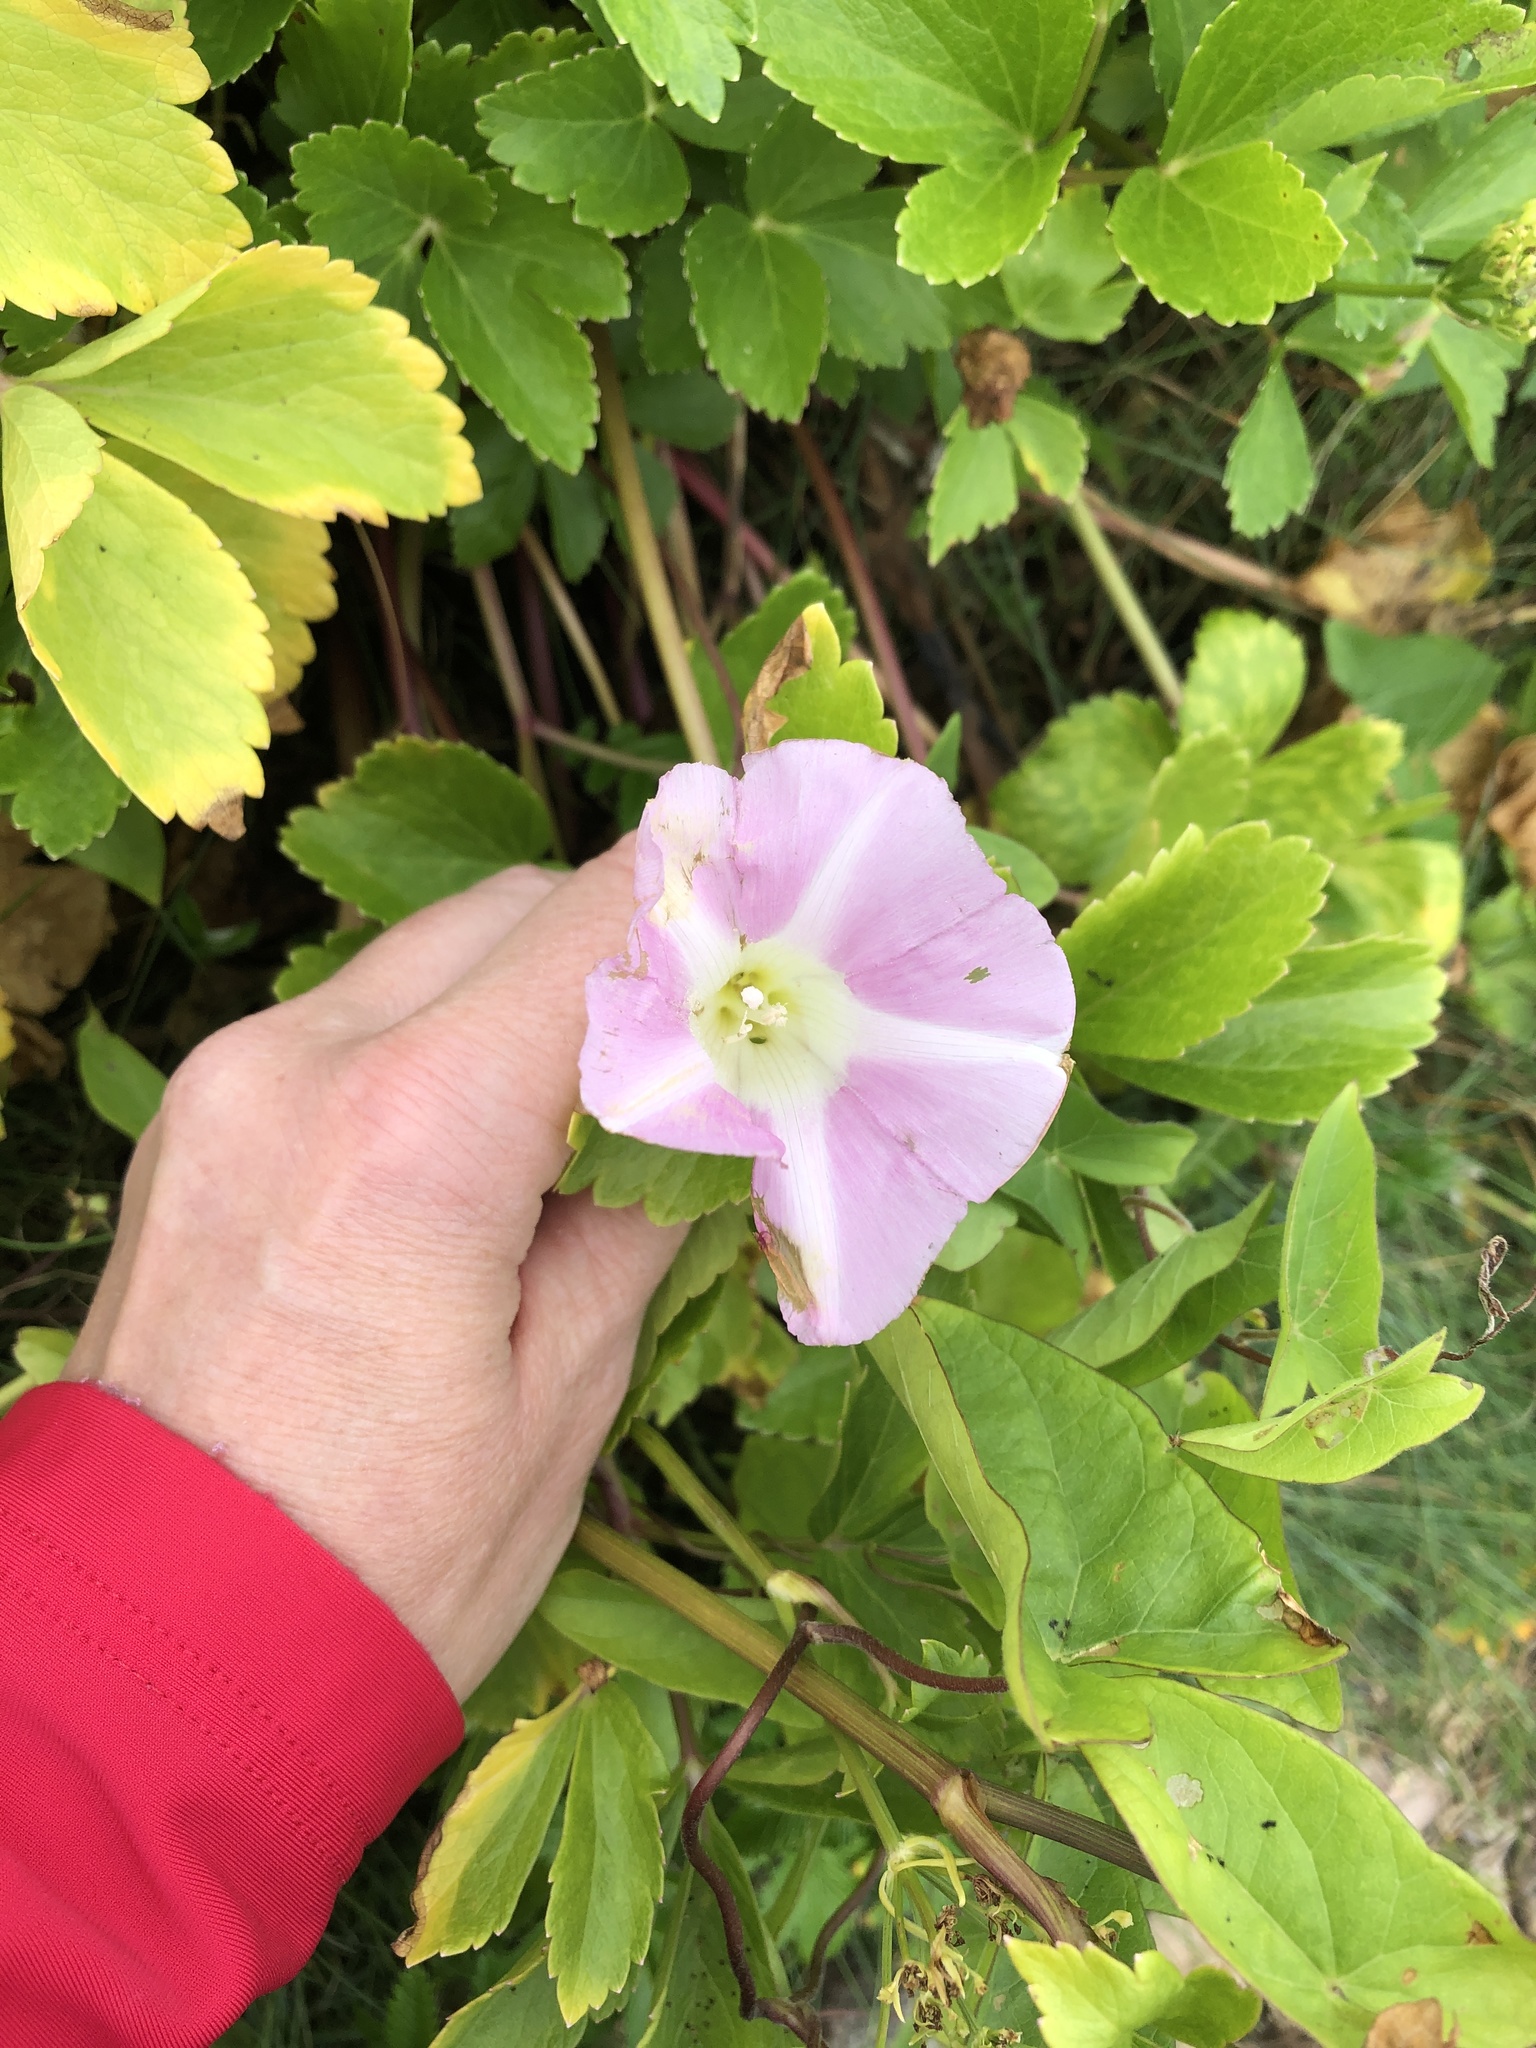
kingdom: Plantae
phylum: Tracheophyta
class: Magnoliopsida
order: Solanales
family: Convolvulaceae
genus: Calystegia
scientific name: Calystegia sepium
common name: Hedge bindweed
